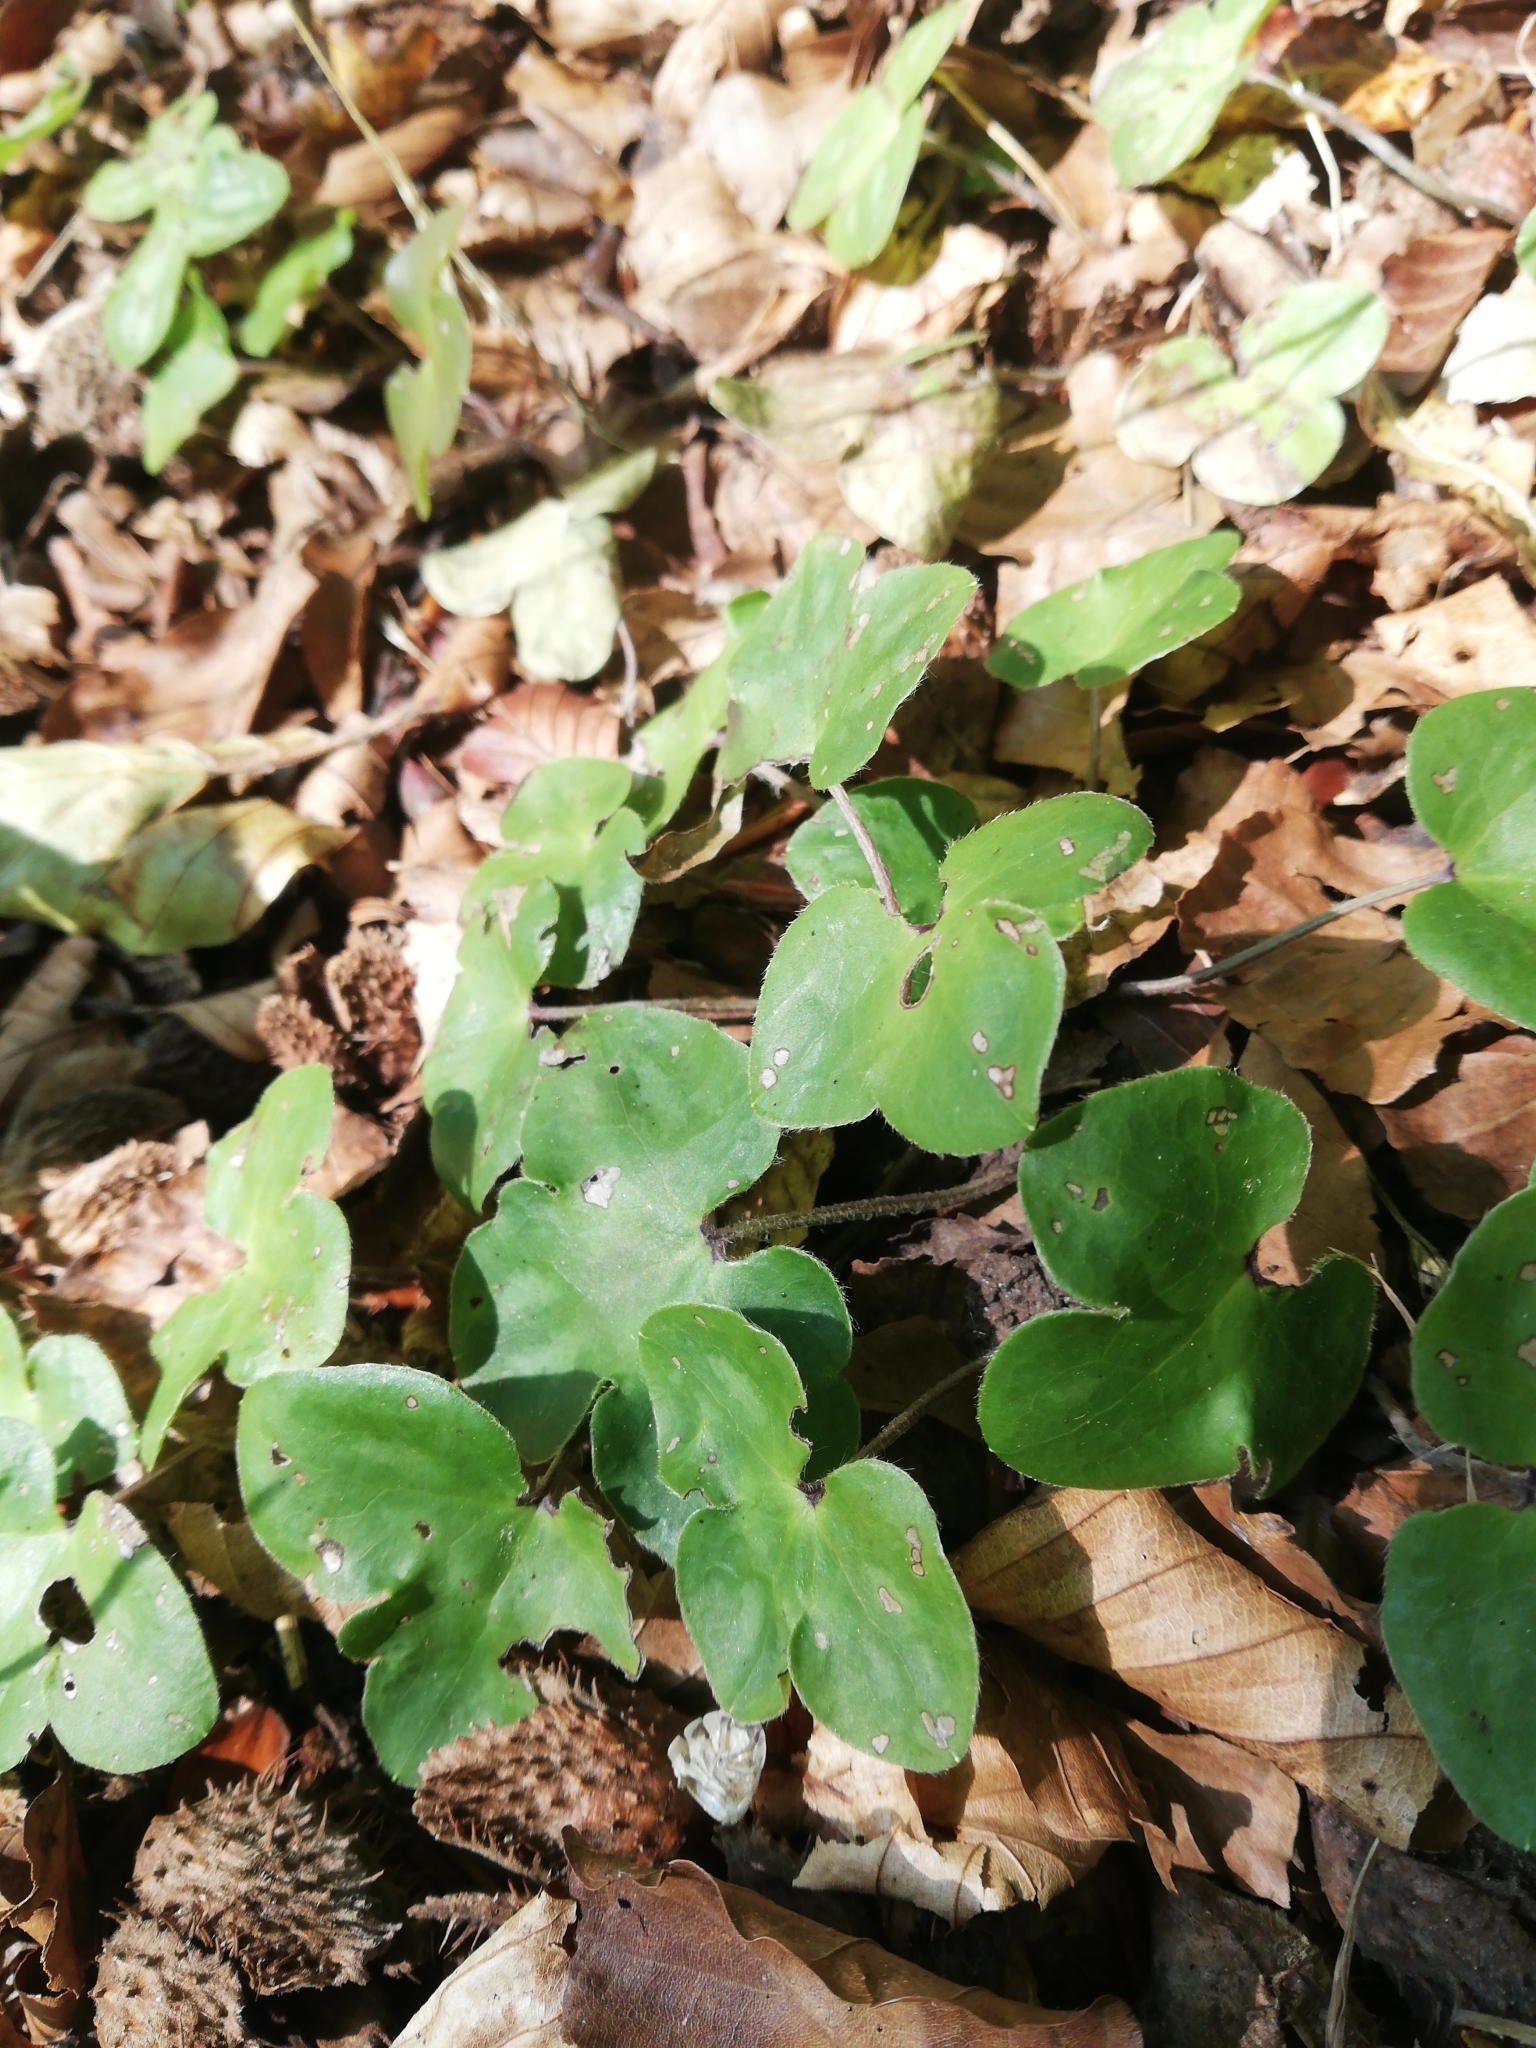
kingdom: Plantae
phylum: Tracheophyta
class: Magnoliopsida
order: Ranunculales
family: Ranunculaceae
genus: Hepatica
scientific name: Hepatica nobilis
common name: Liverleaf
